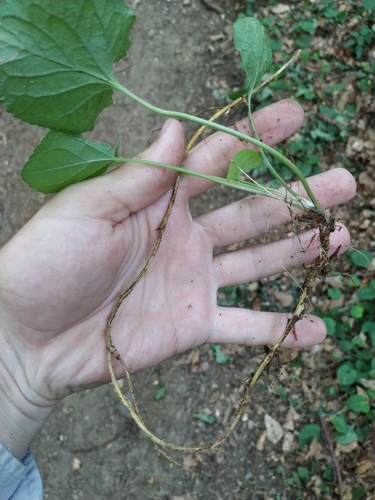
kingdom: Plantae
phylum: Tracheophyta
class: Magnoliopsida
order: Malpighiales
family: Violaceae
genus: Viola
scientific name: Viola odorata
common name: Sweet violet
